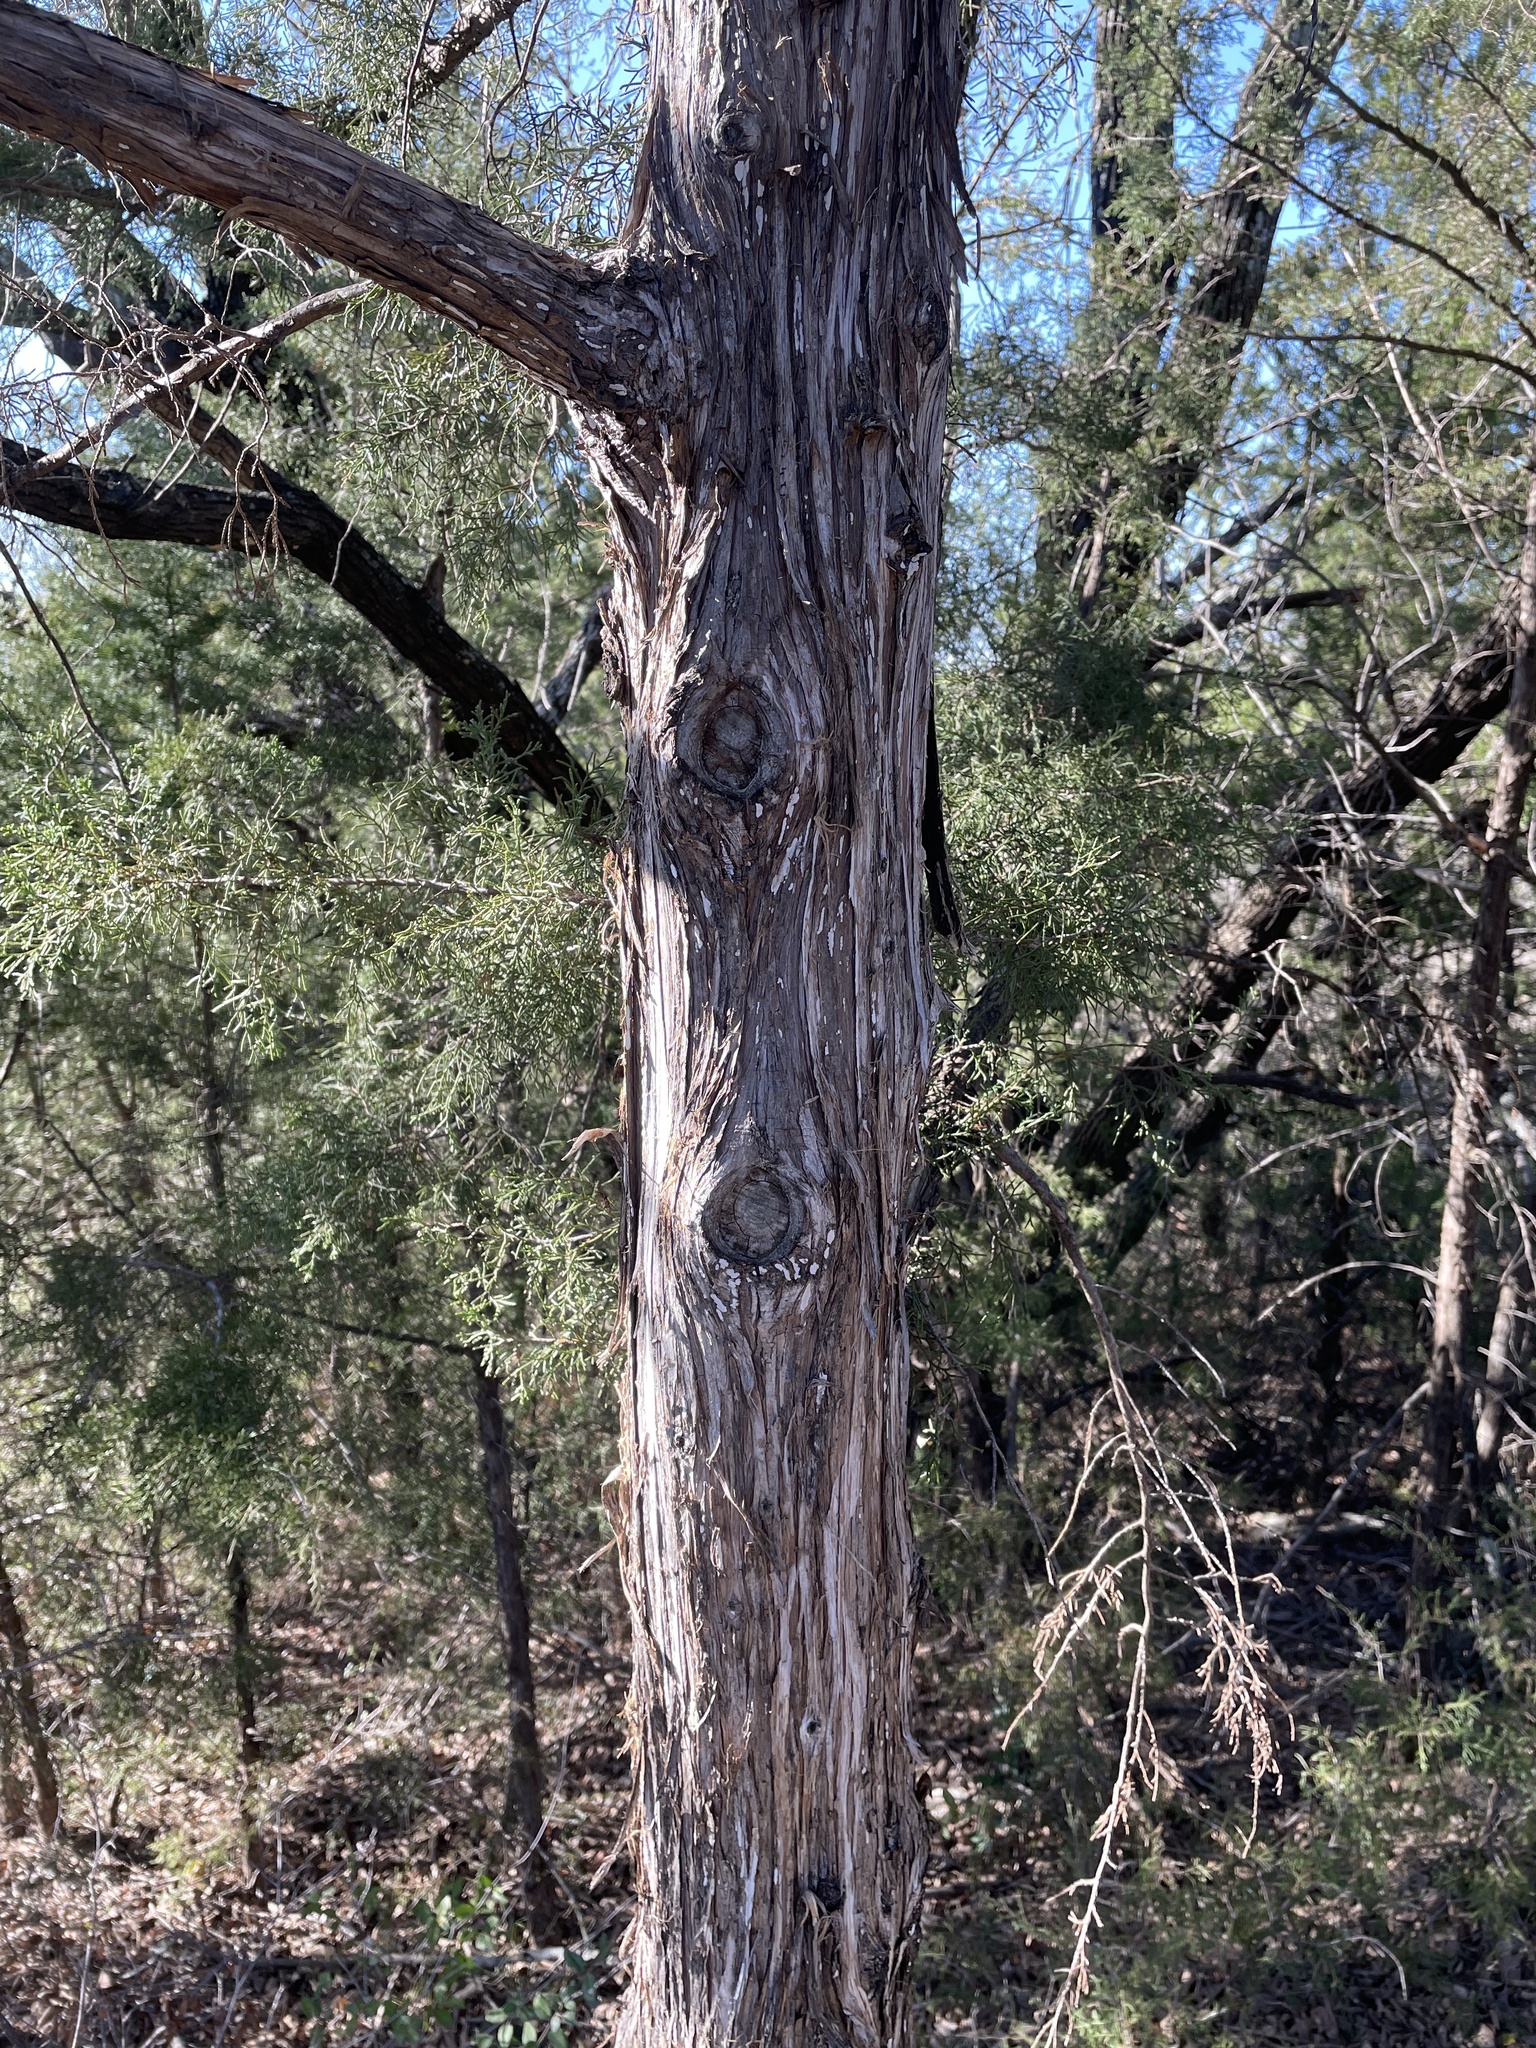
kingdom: Fungi
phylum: Basidiomycota
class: Agaricomycetes
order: Agaricales
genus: Dendrothele
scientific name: Dendrothele nivosa
